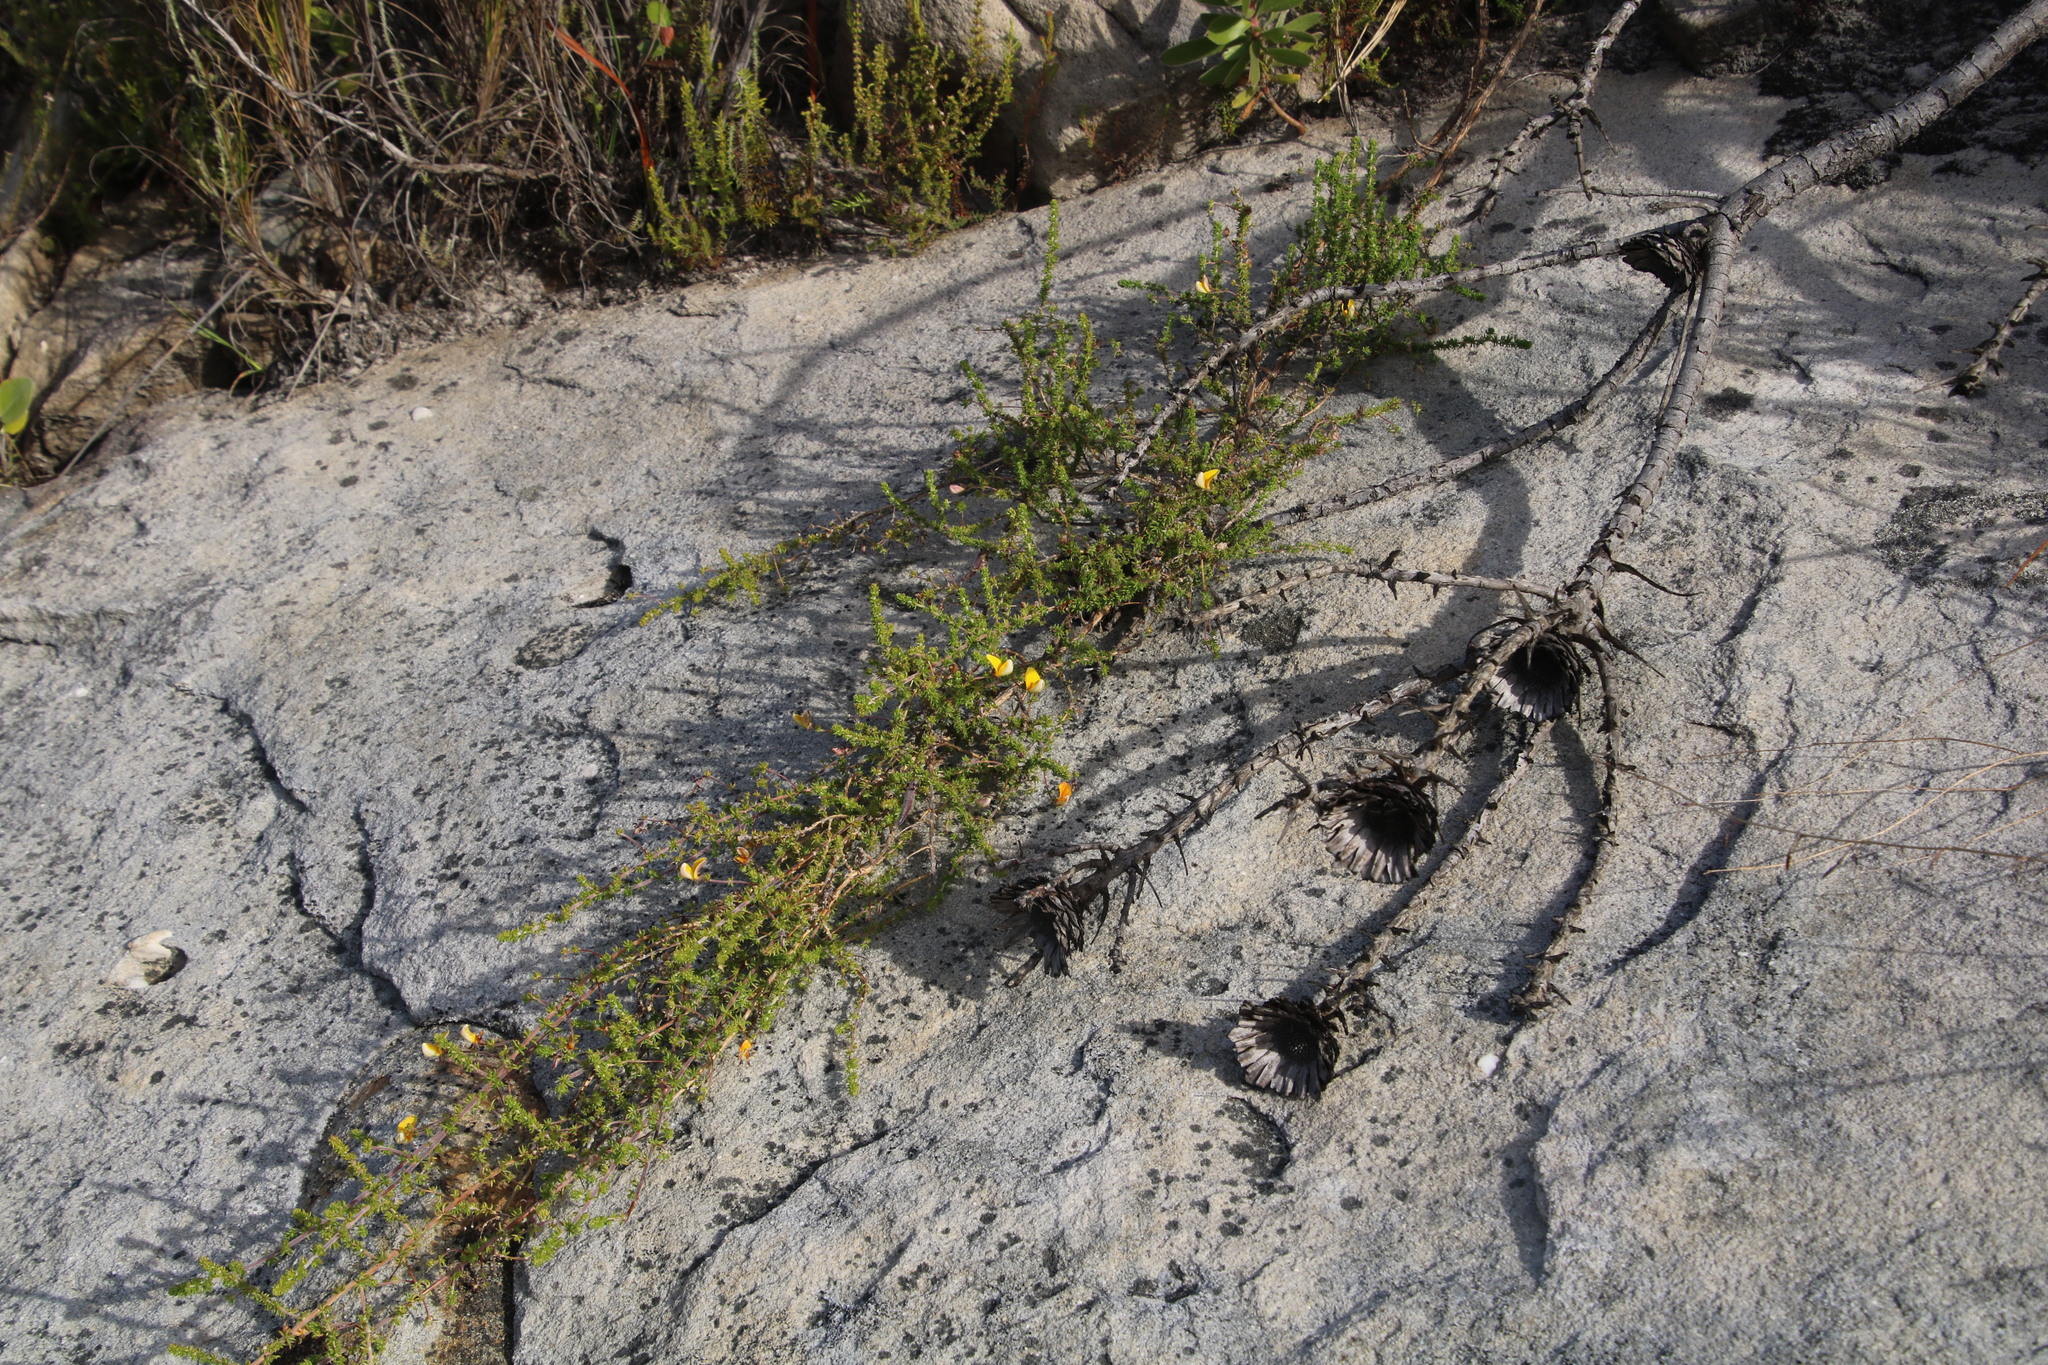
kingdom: Plantae
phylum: Tracheophyta
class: Magnoliopsida
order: Fabales
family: Fabaceae
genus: Aspalathus
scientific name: Aspalathus retroflexa
